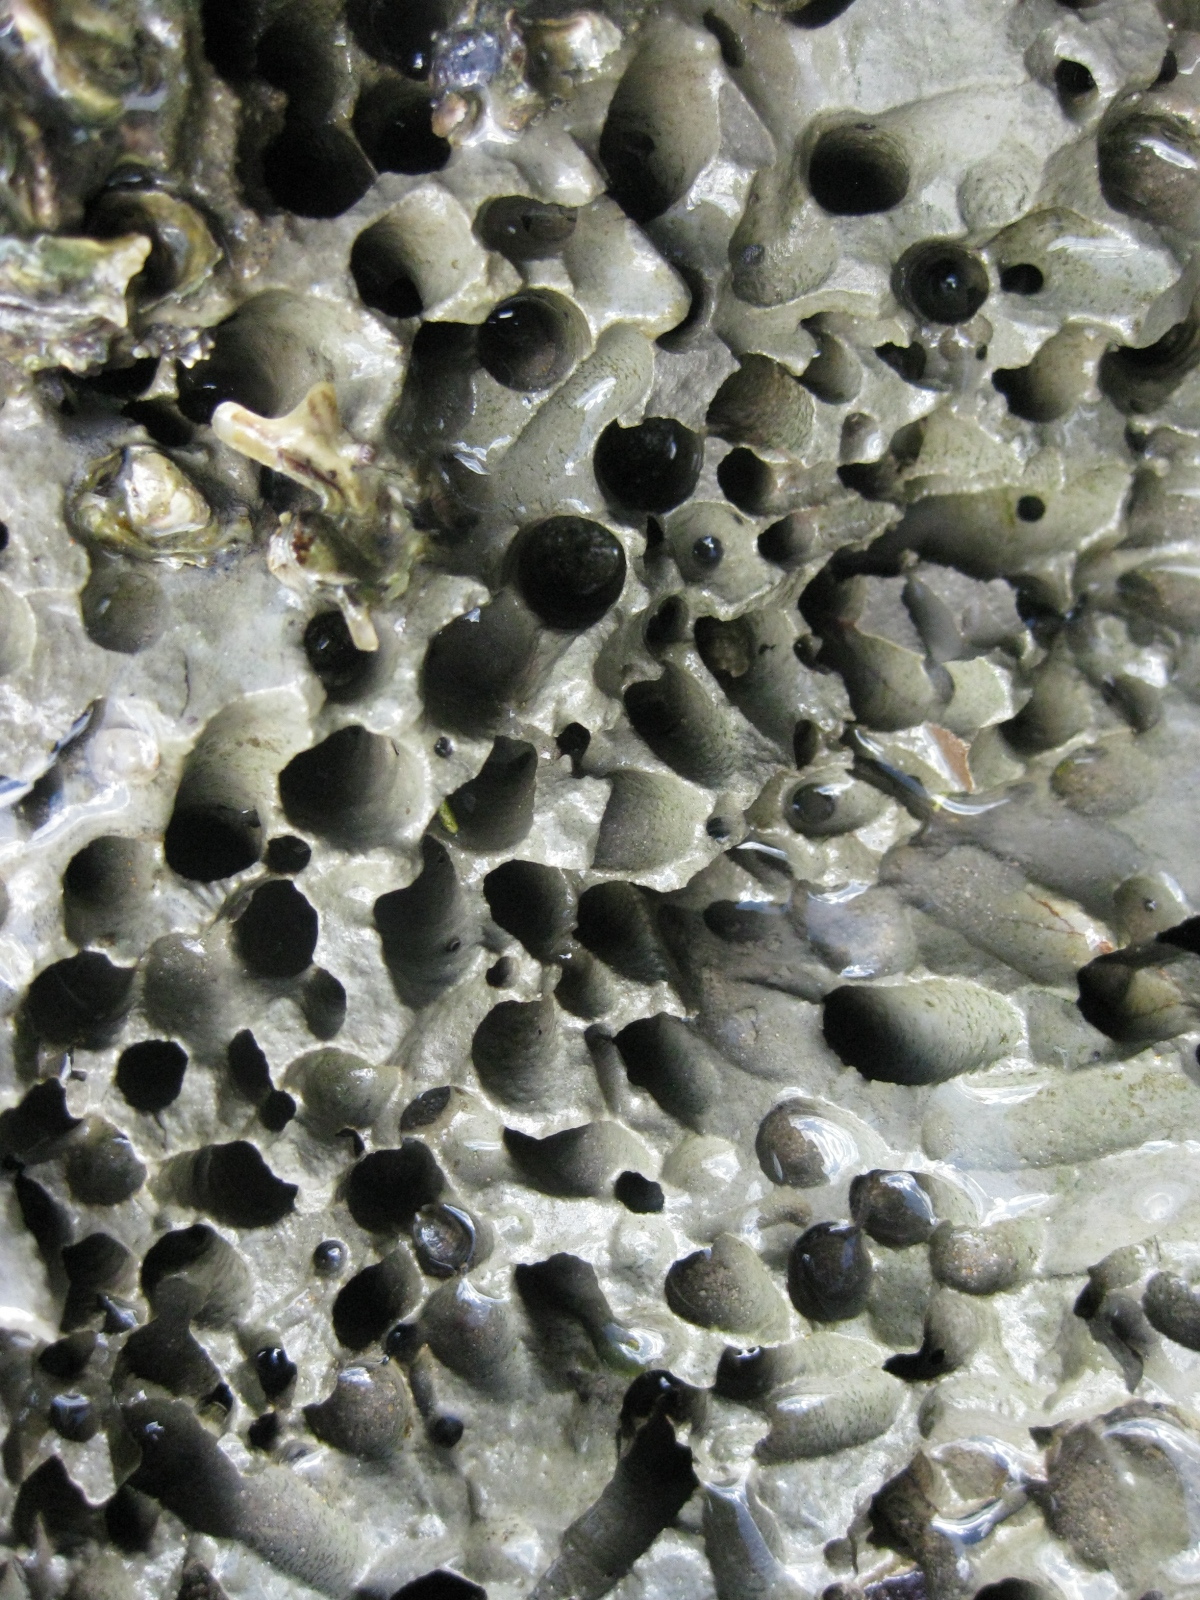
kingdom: Animalia
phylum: Mollusca
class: Bivalvia
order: Myida
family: Pholadidae
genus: Barnea
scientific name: Barnea similis
